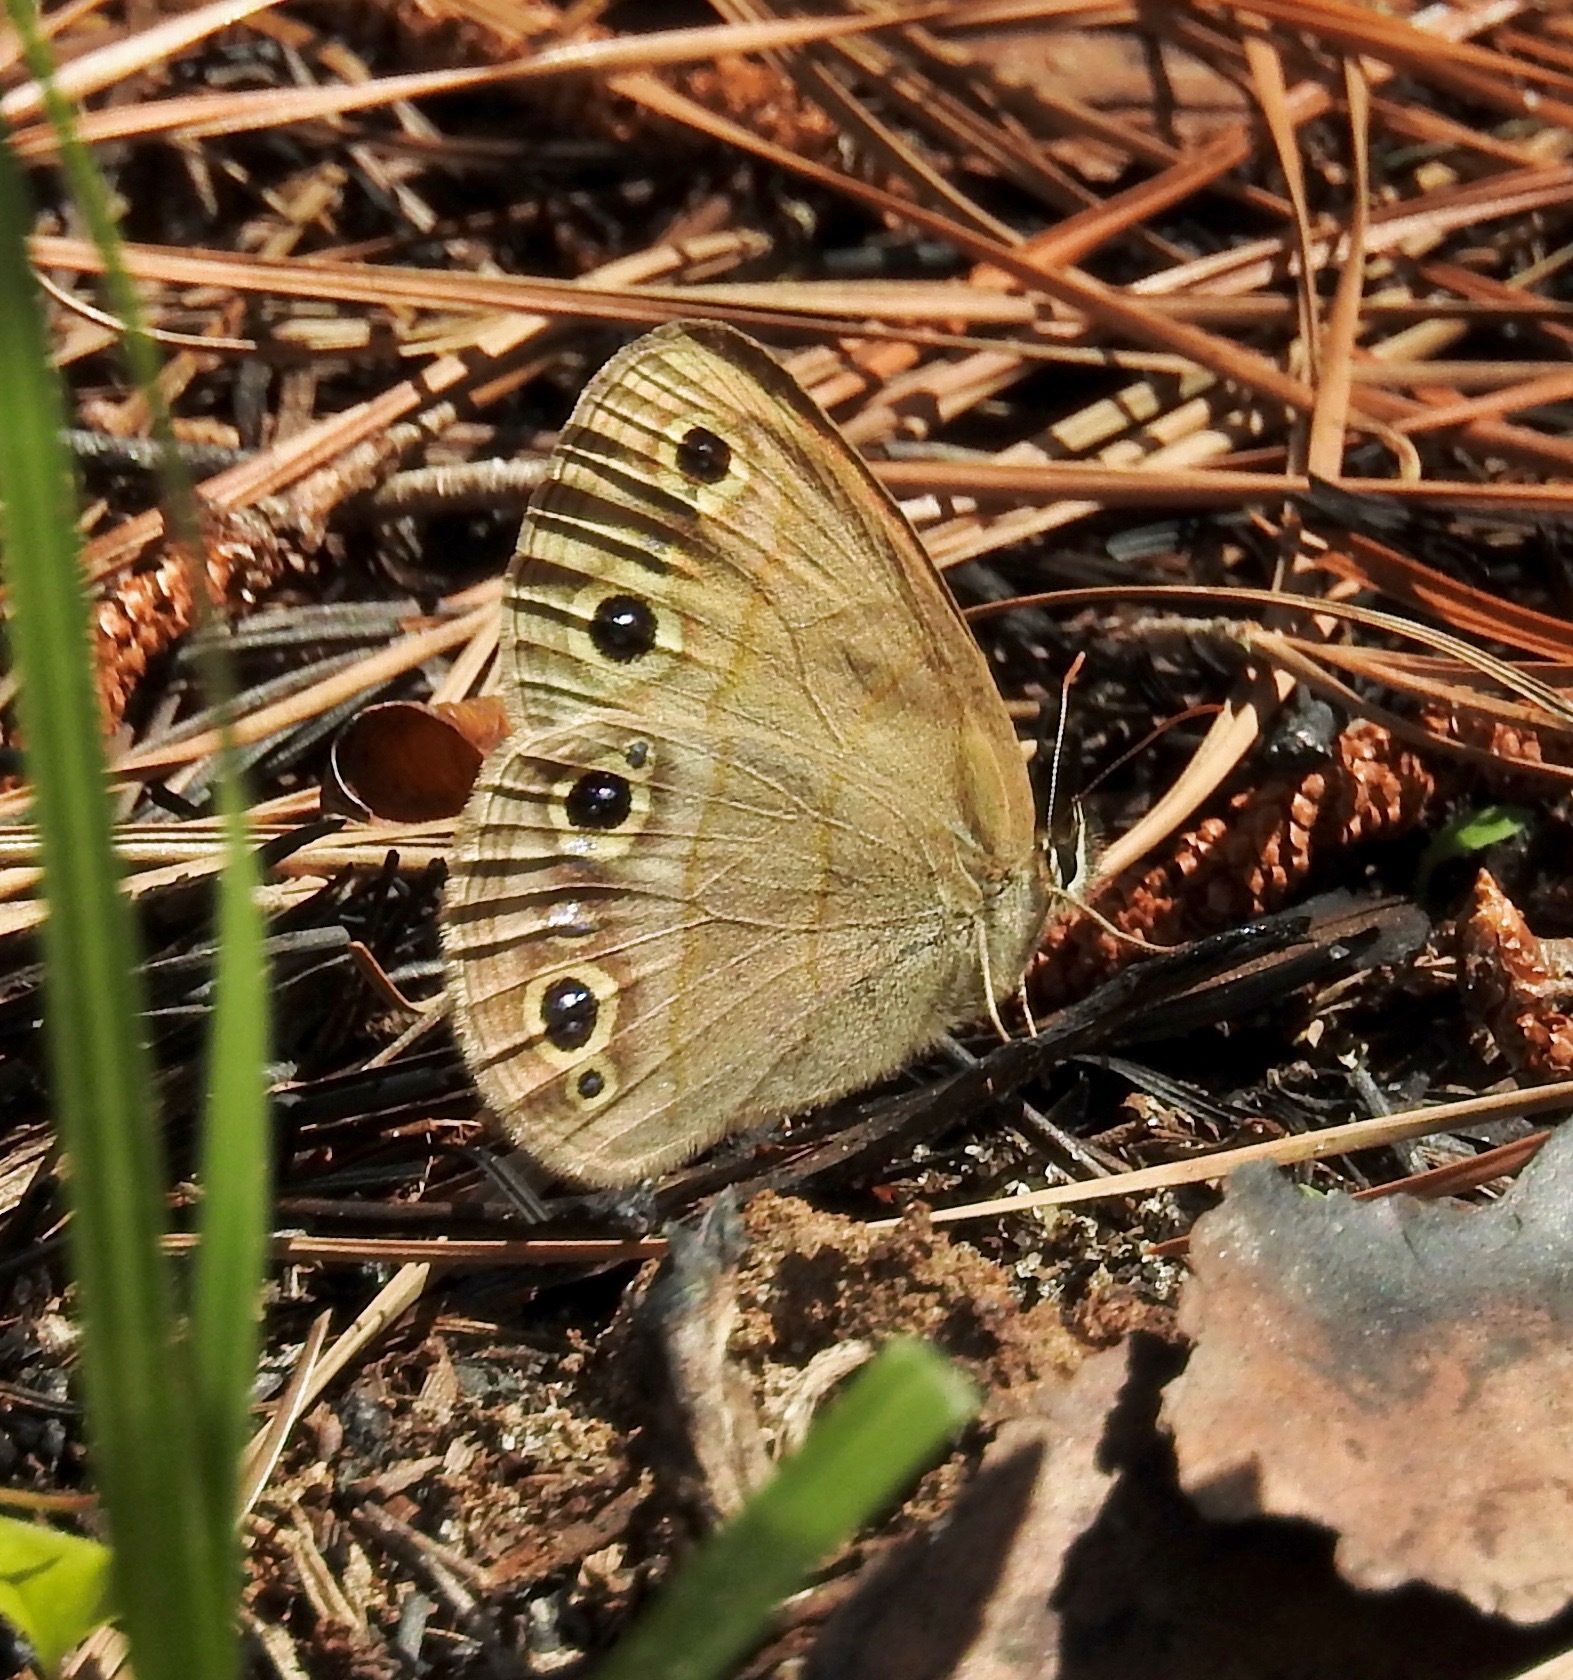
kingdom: Animalia
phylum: Arthropoda
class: Insecta
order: Lepidoptera
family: Nymphalidae
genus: Euptychia
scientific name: Euptychia cymela
